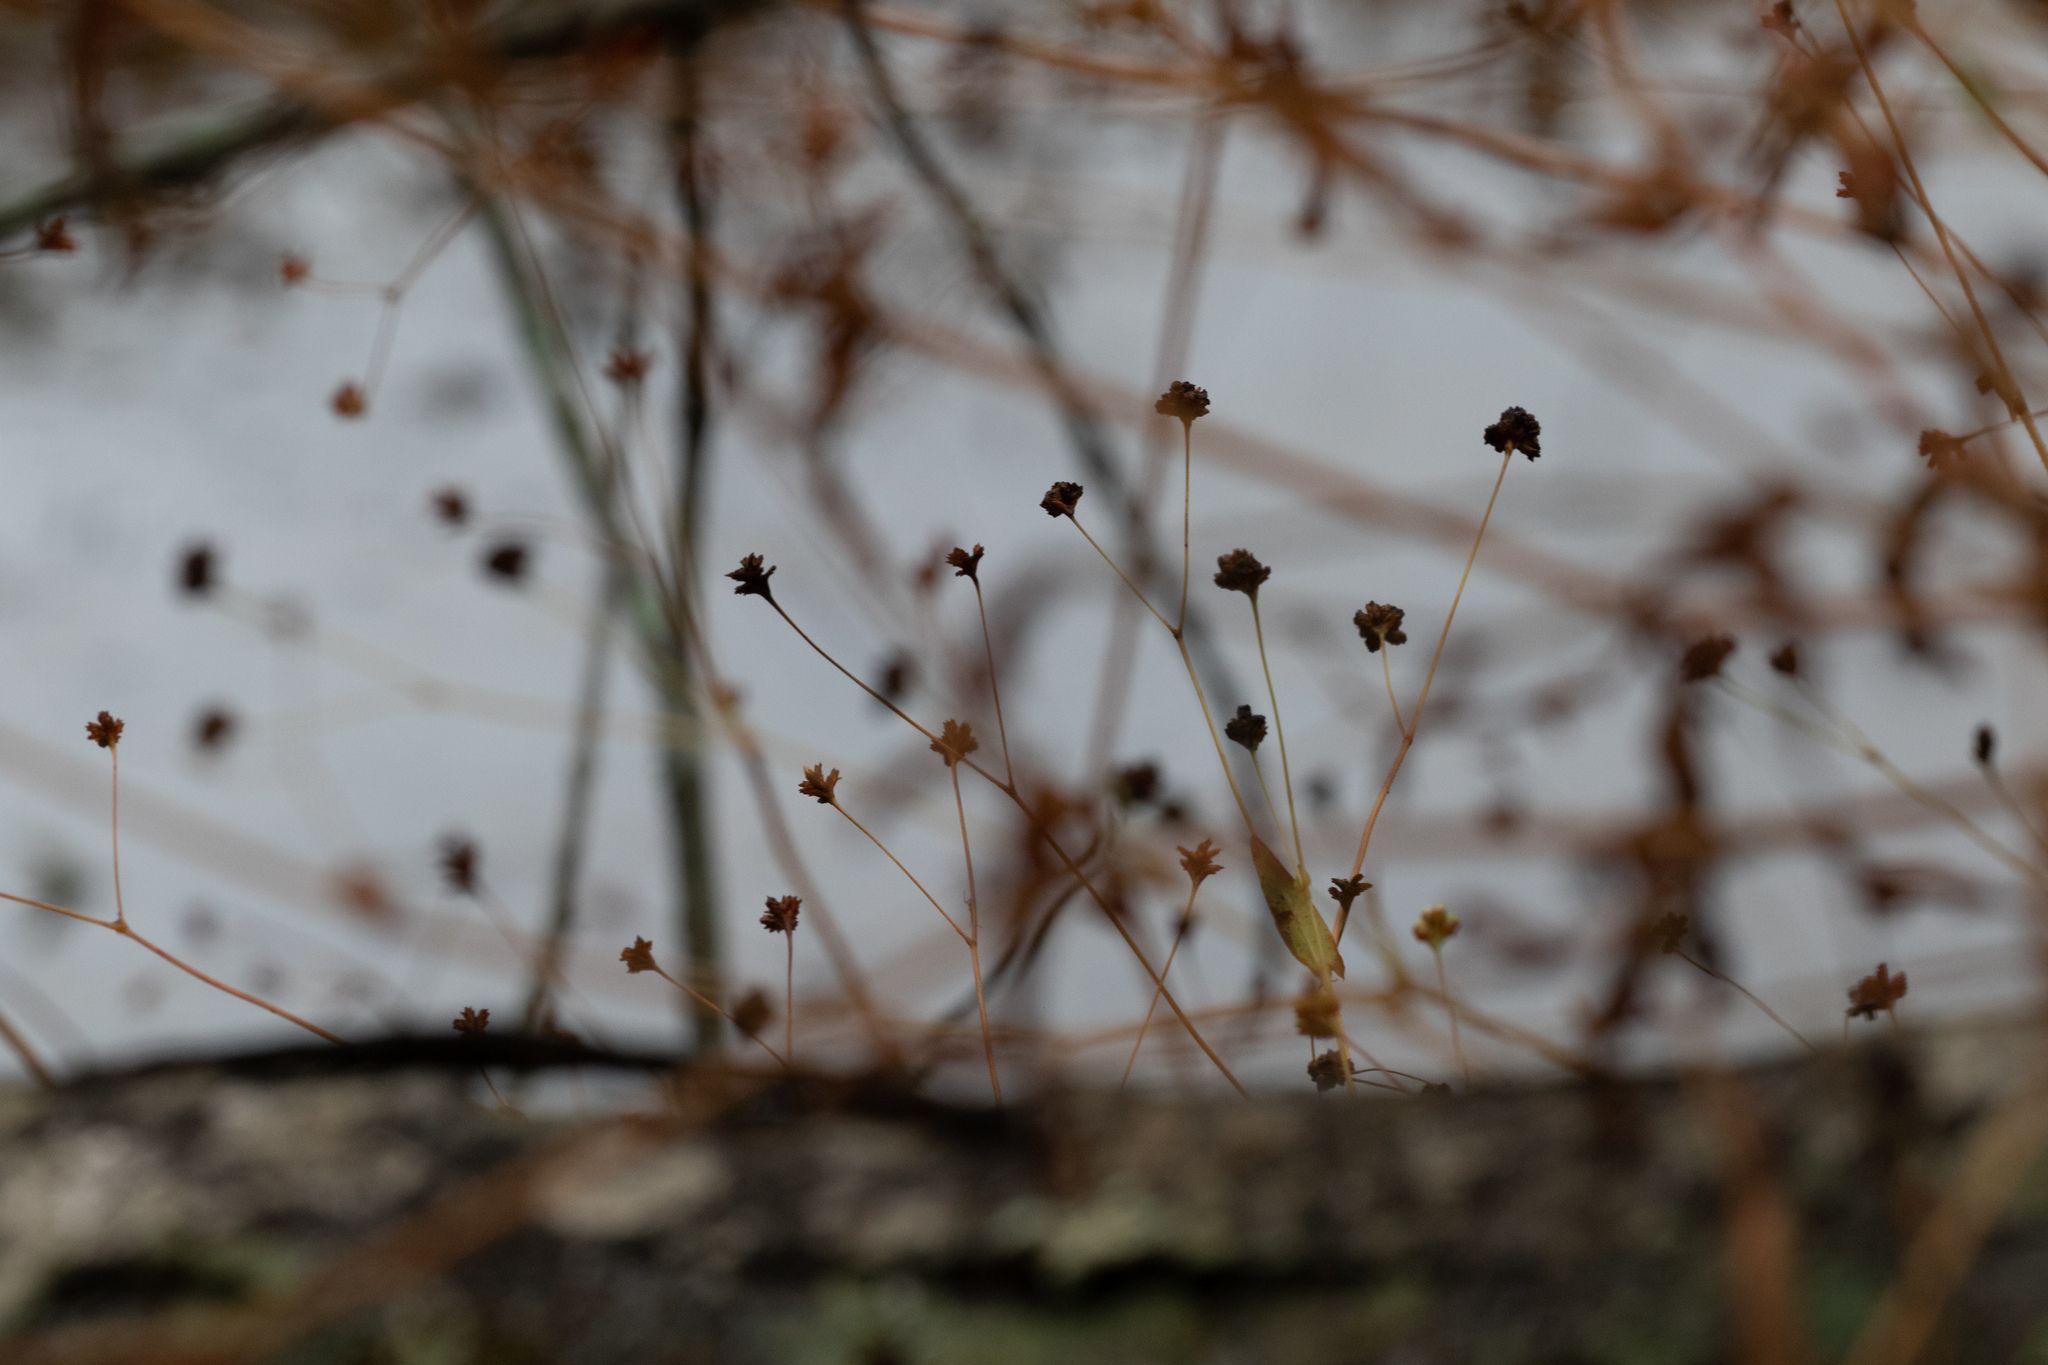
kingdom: Plantae
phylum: Tracheophyta
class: Magnoliopsida
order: Caryophyllales
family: Polygonaceae
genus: Persicaria
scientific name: Persicaria sagittata
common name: American tearthumb
